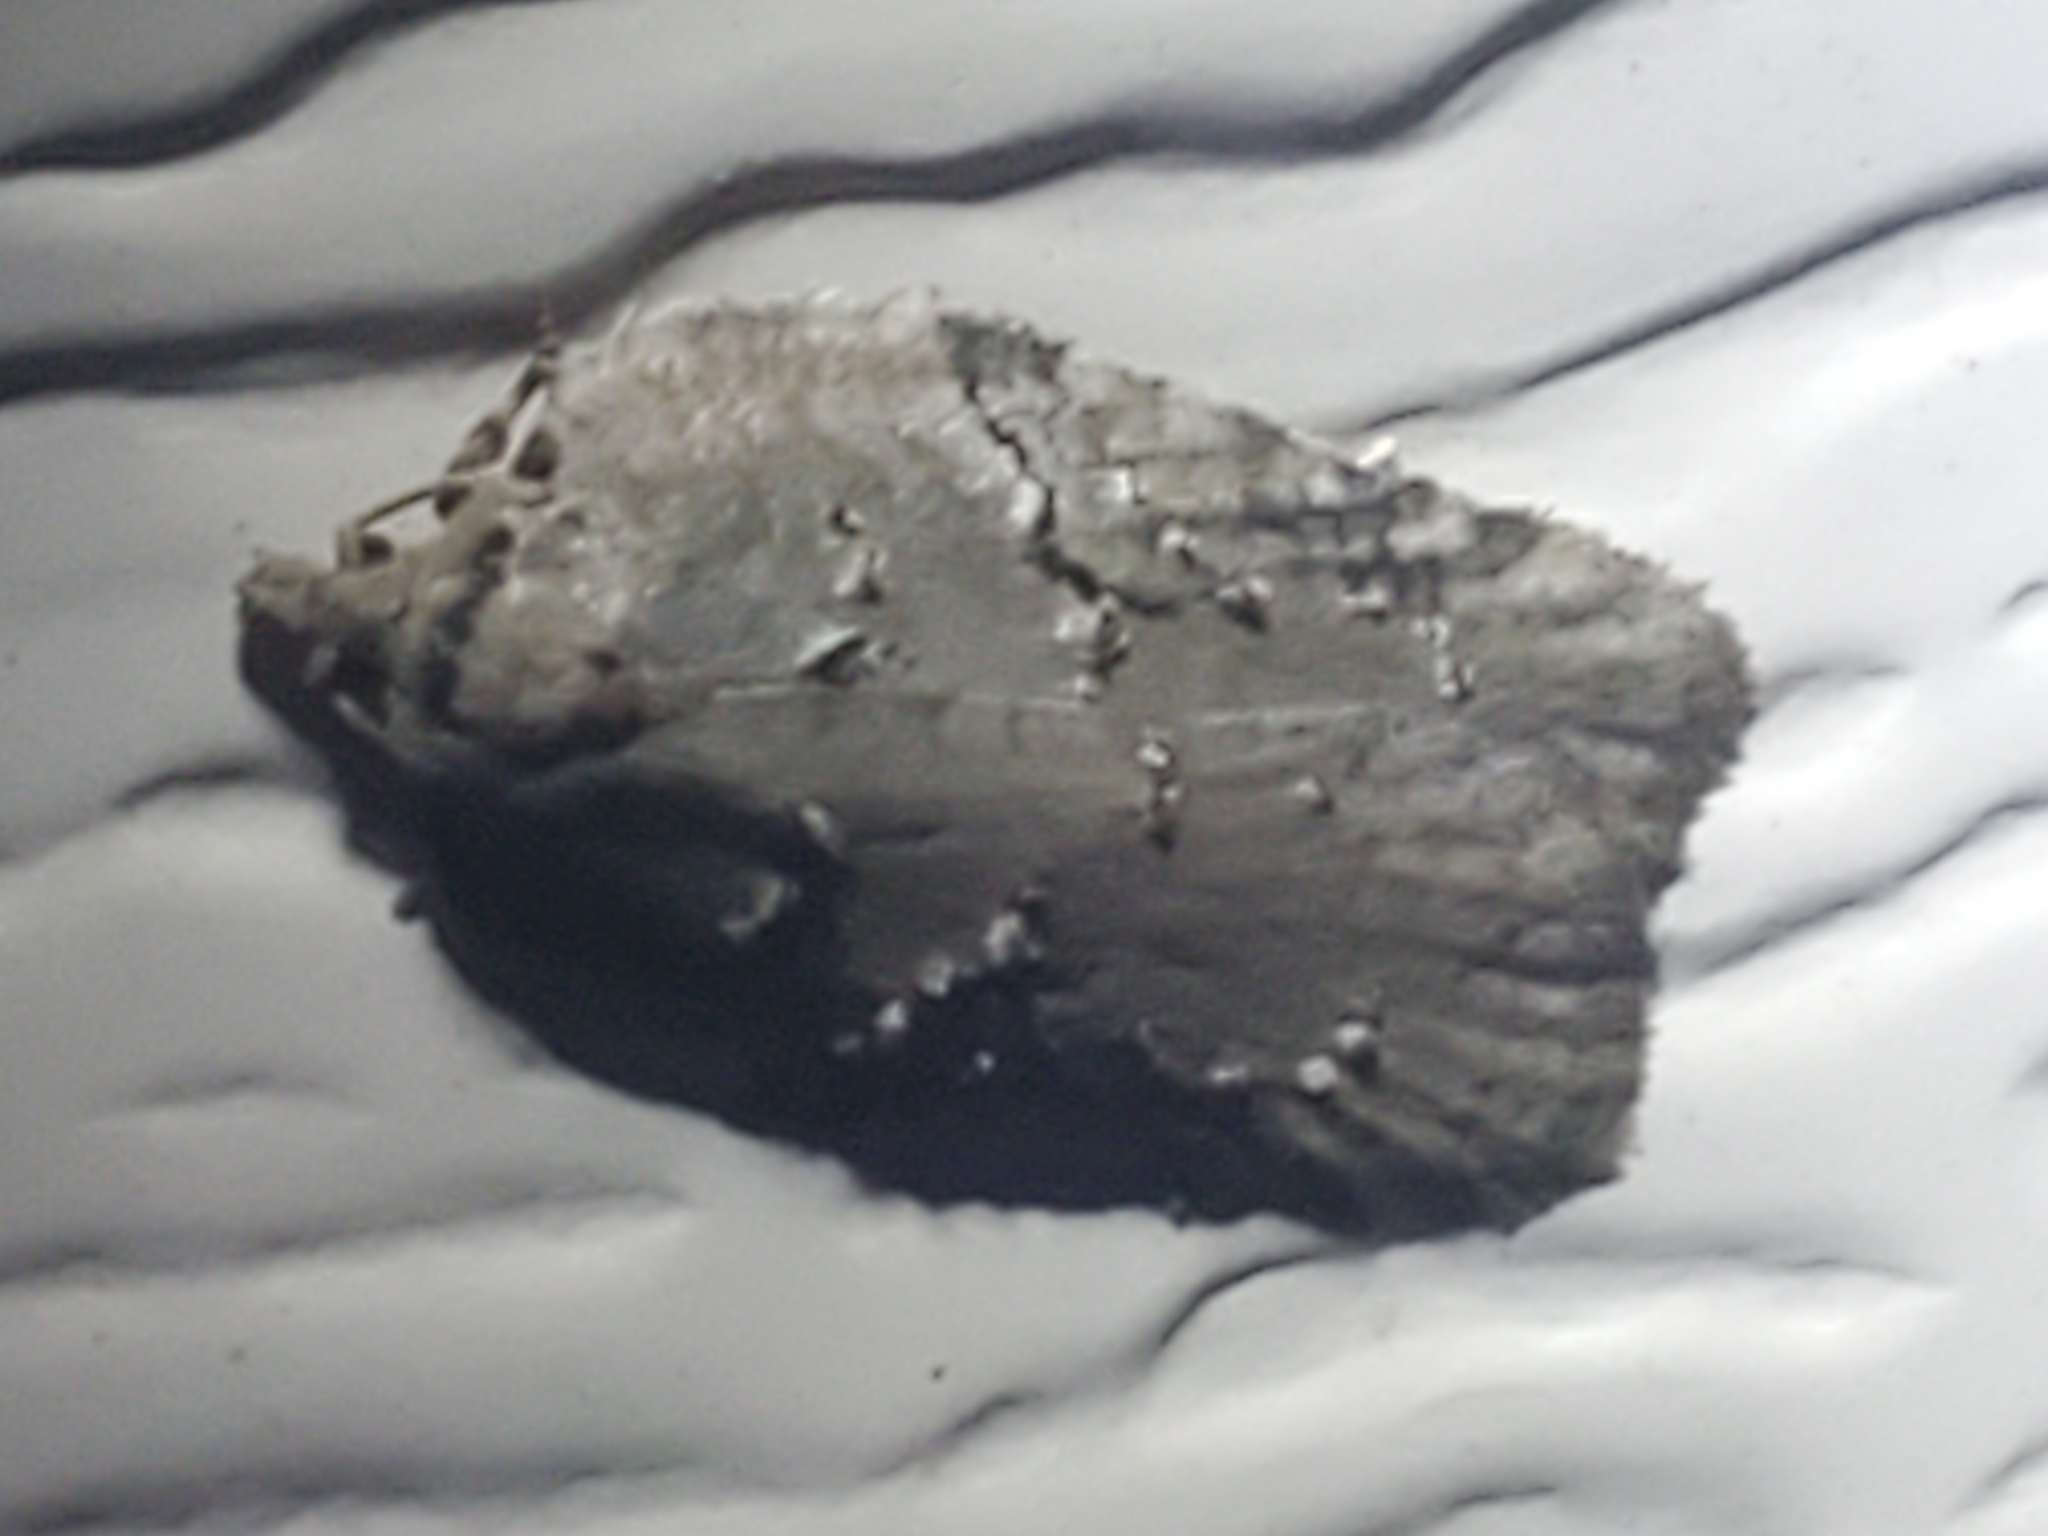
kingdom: Animalia
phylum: Arthropoda
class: Insecta
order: Lepidoptera
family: Tortricidae
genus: Acleris
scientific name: Acleris chalybeana
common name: Lesser maple leafroller
